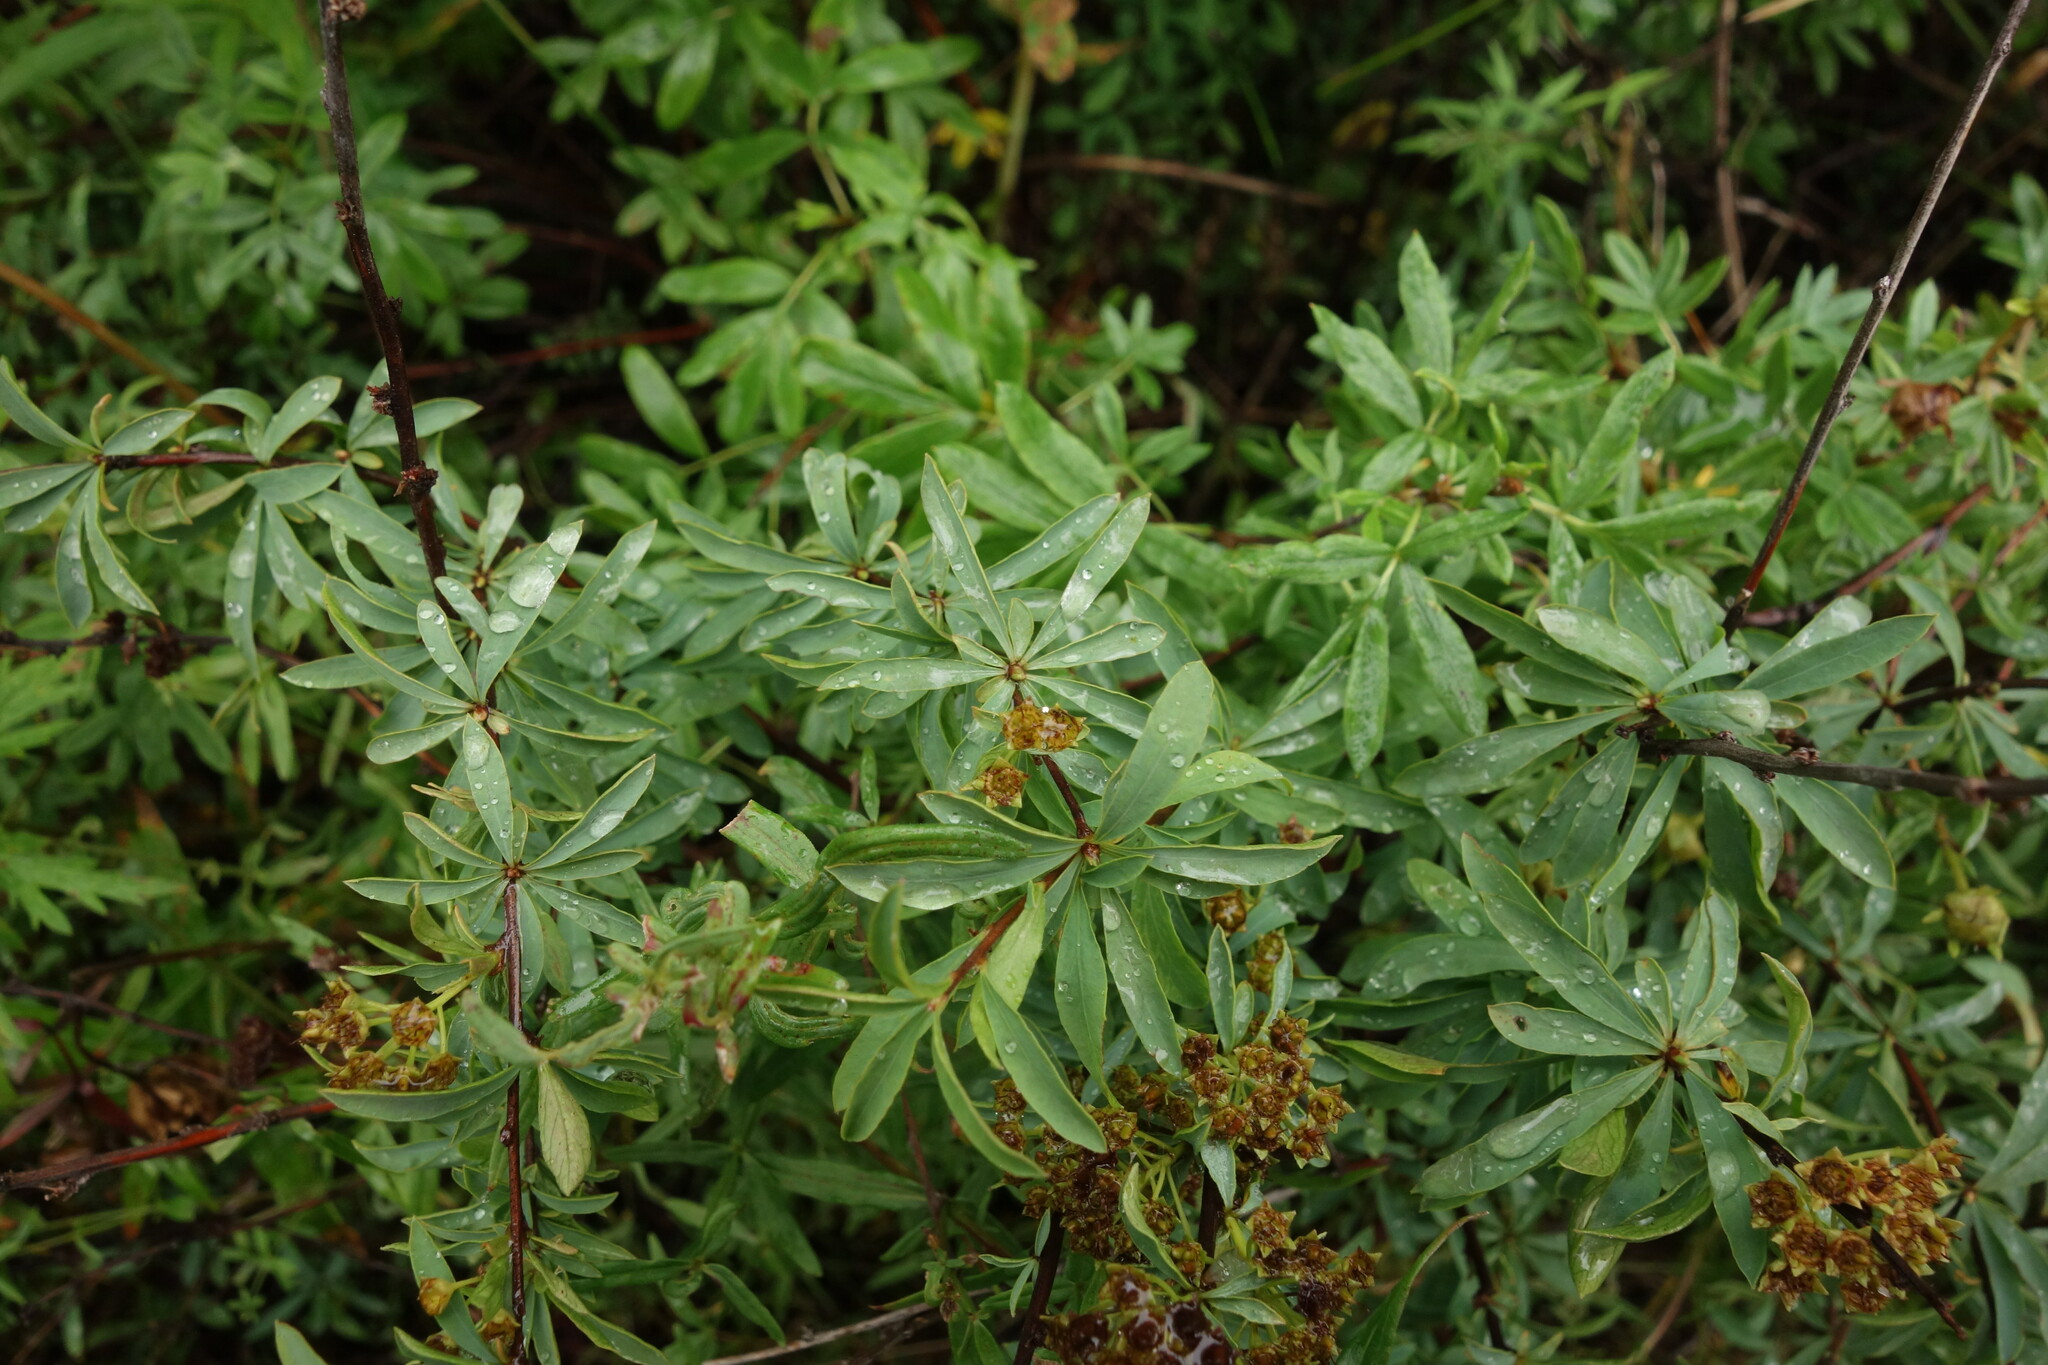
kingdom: Plantae
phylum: Tracheophyta
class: Magnoliopsida
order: Rosales
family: Rosaceae
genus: Spiraea
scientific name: Spiraea alpina
